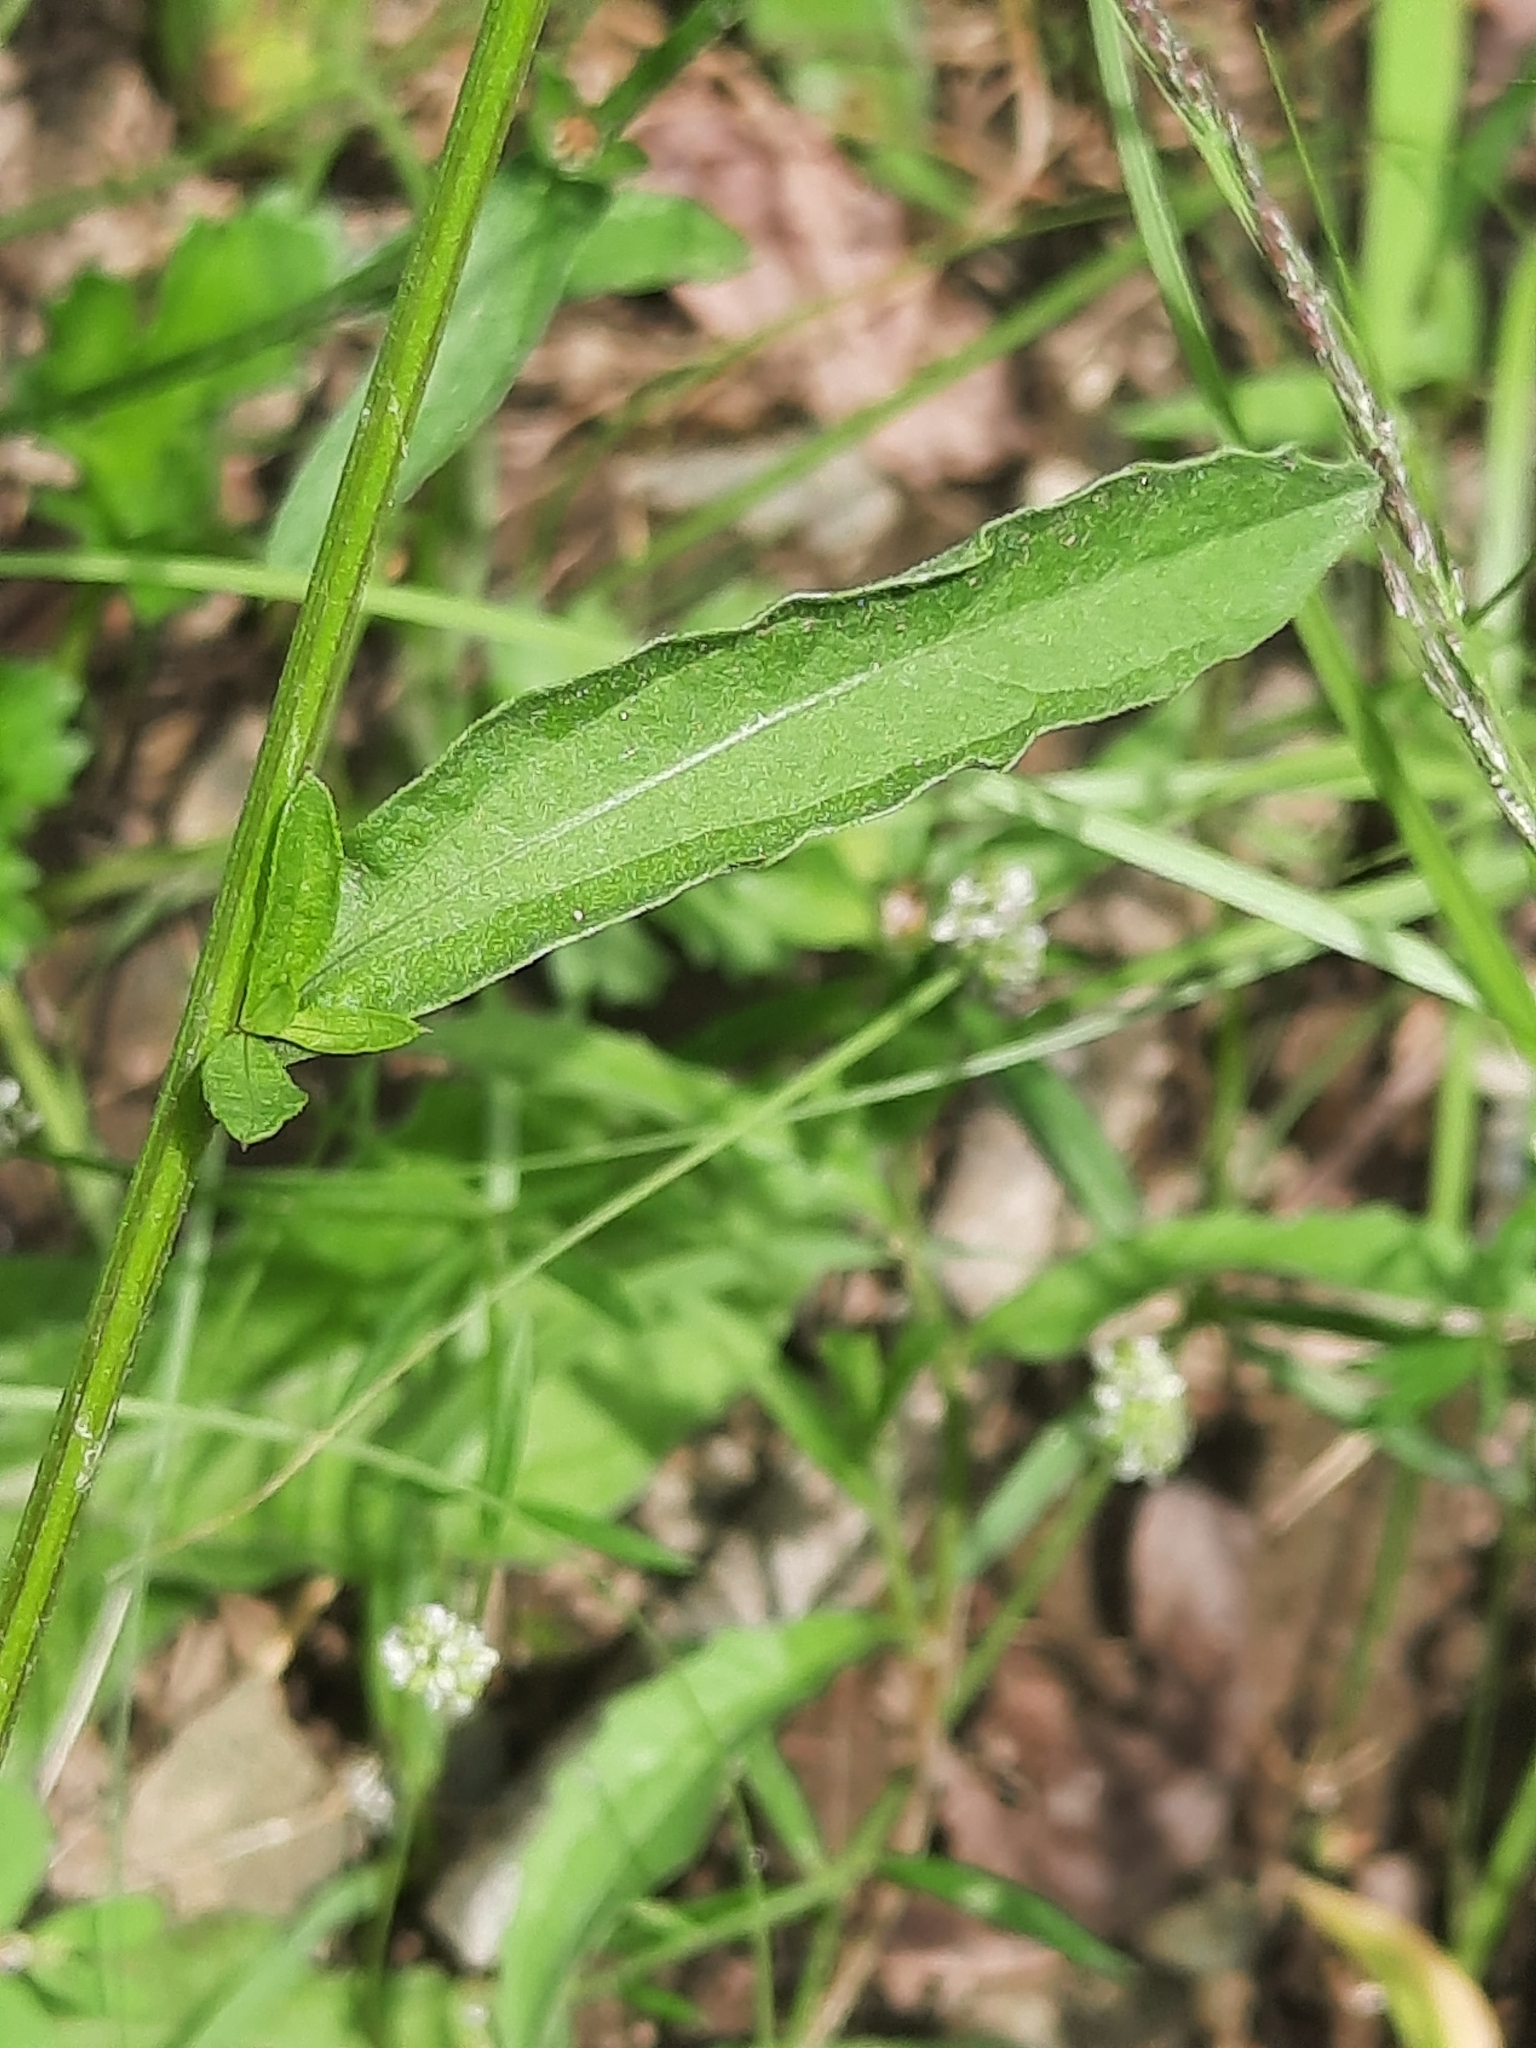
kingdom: Plantae
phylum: Tracheophyta
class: Magnoliopsida
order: Asterales
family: Asteraceae
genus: Centaurea
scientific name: Centaurea nigrescens
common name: Tyrol knapweed
